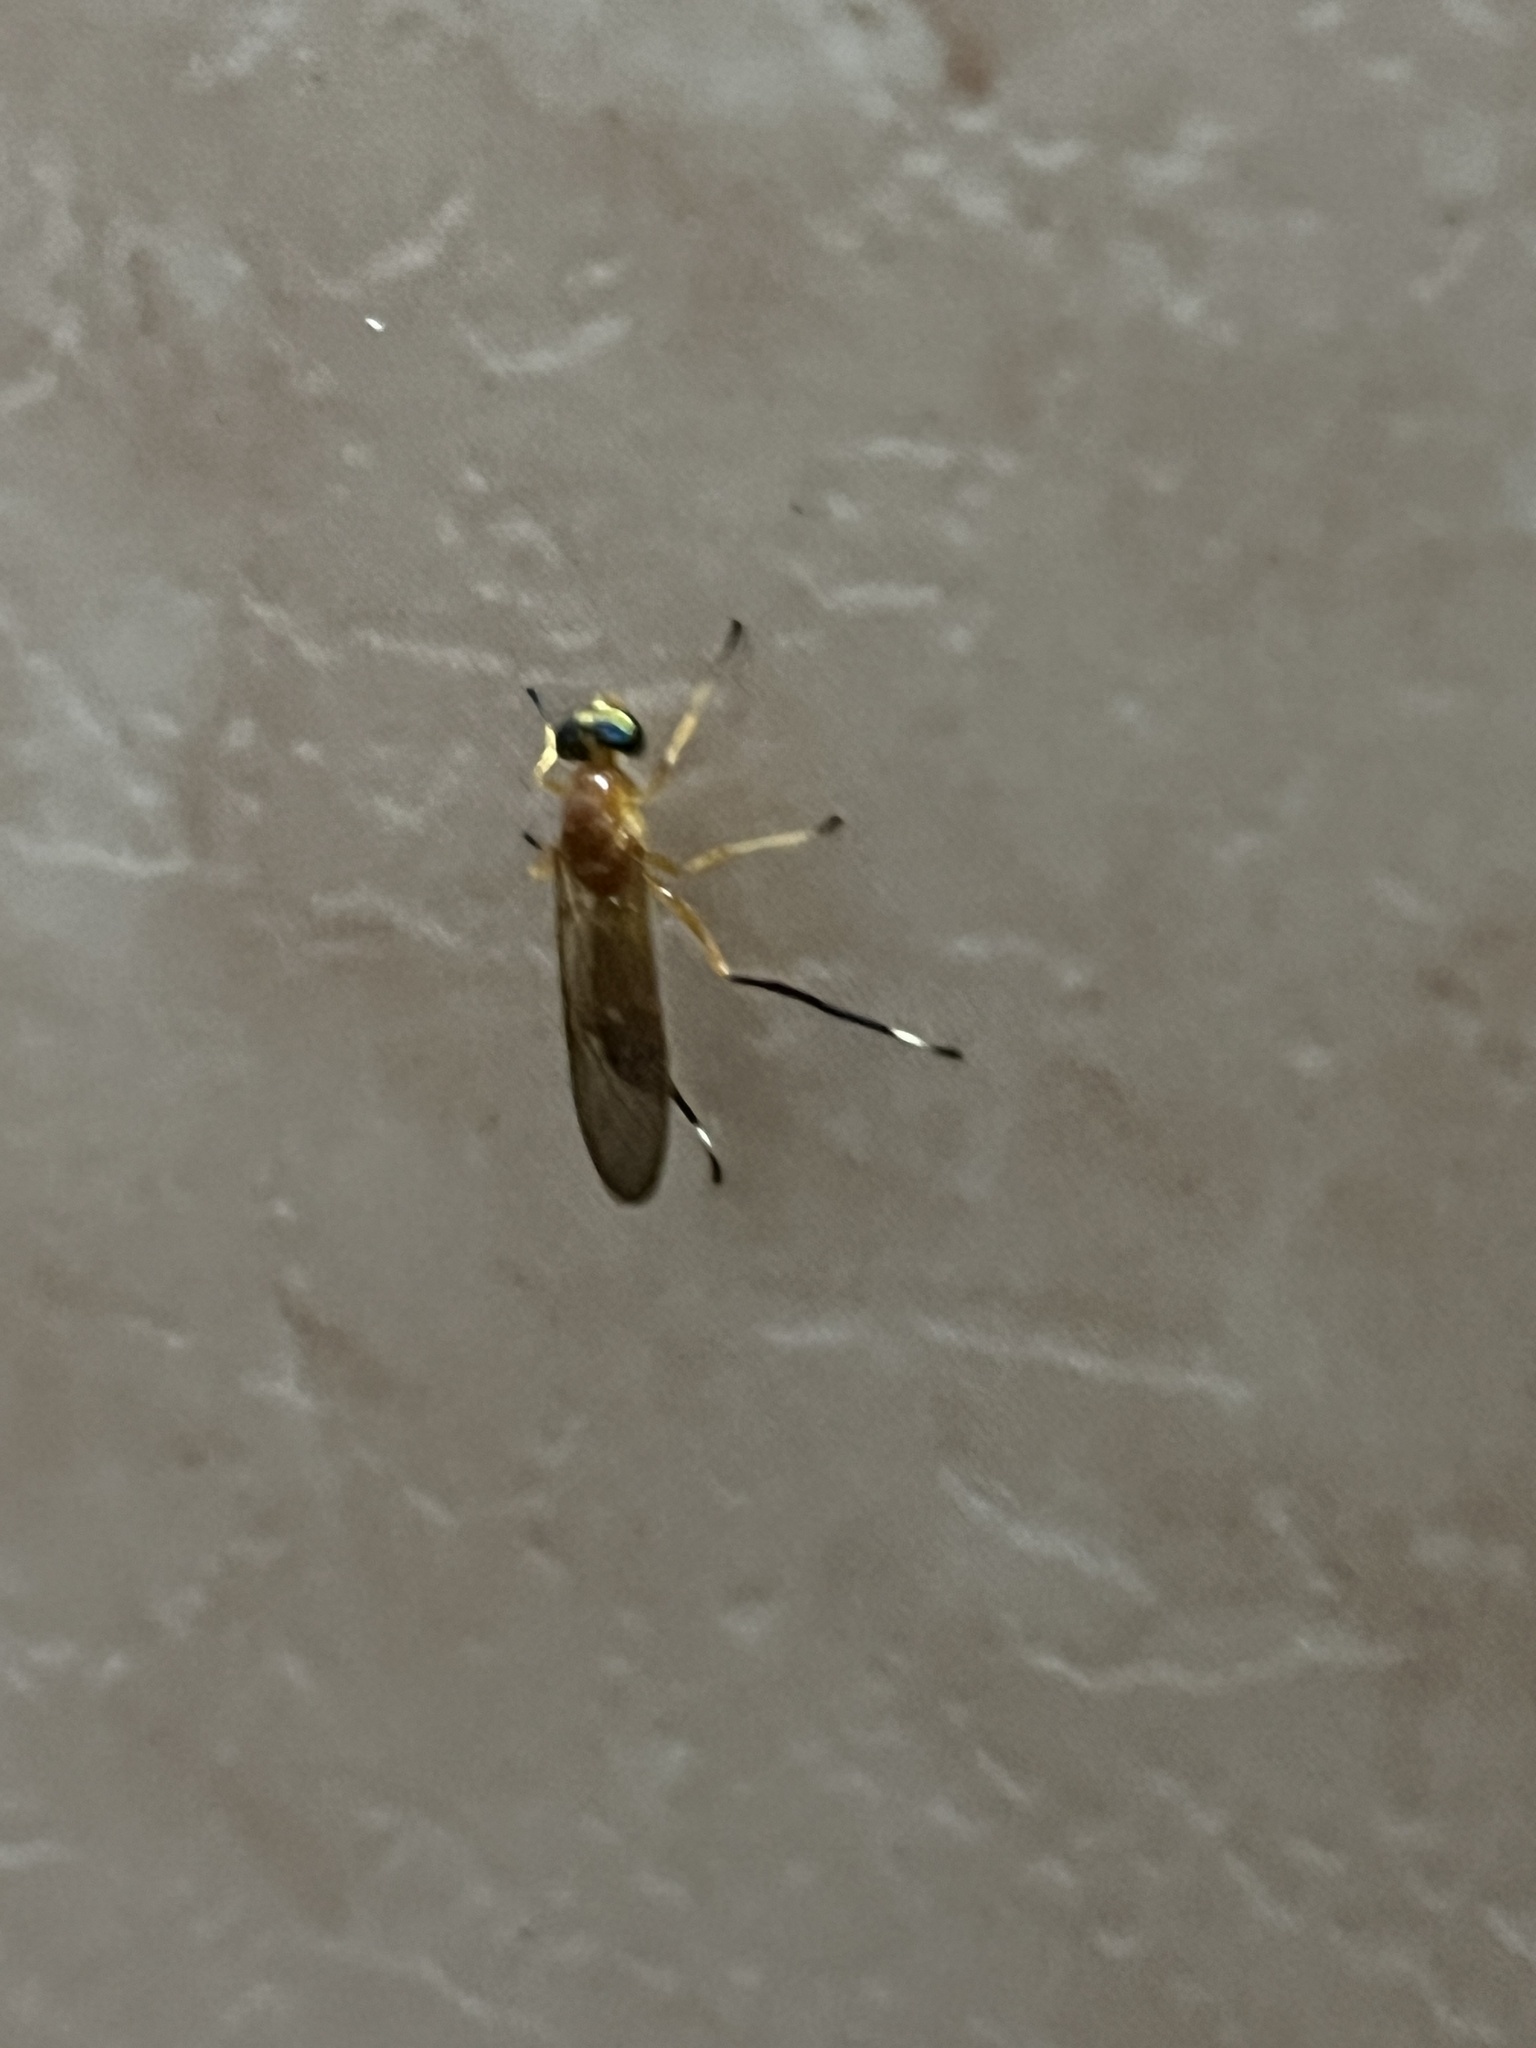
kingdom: Animalia
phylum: Arthropoda
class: Insecta
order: Diptera
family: Stratiomyidae
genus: Ptecticus
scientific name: Ptecticus testaceus
